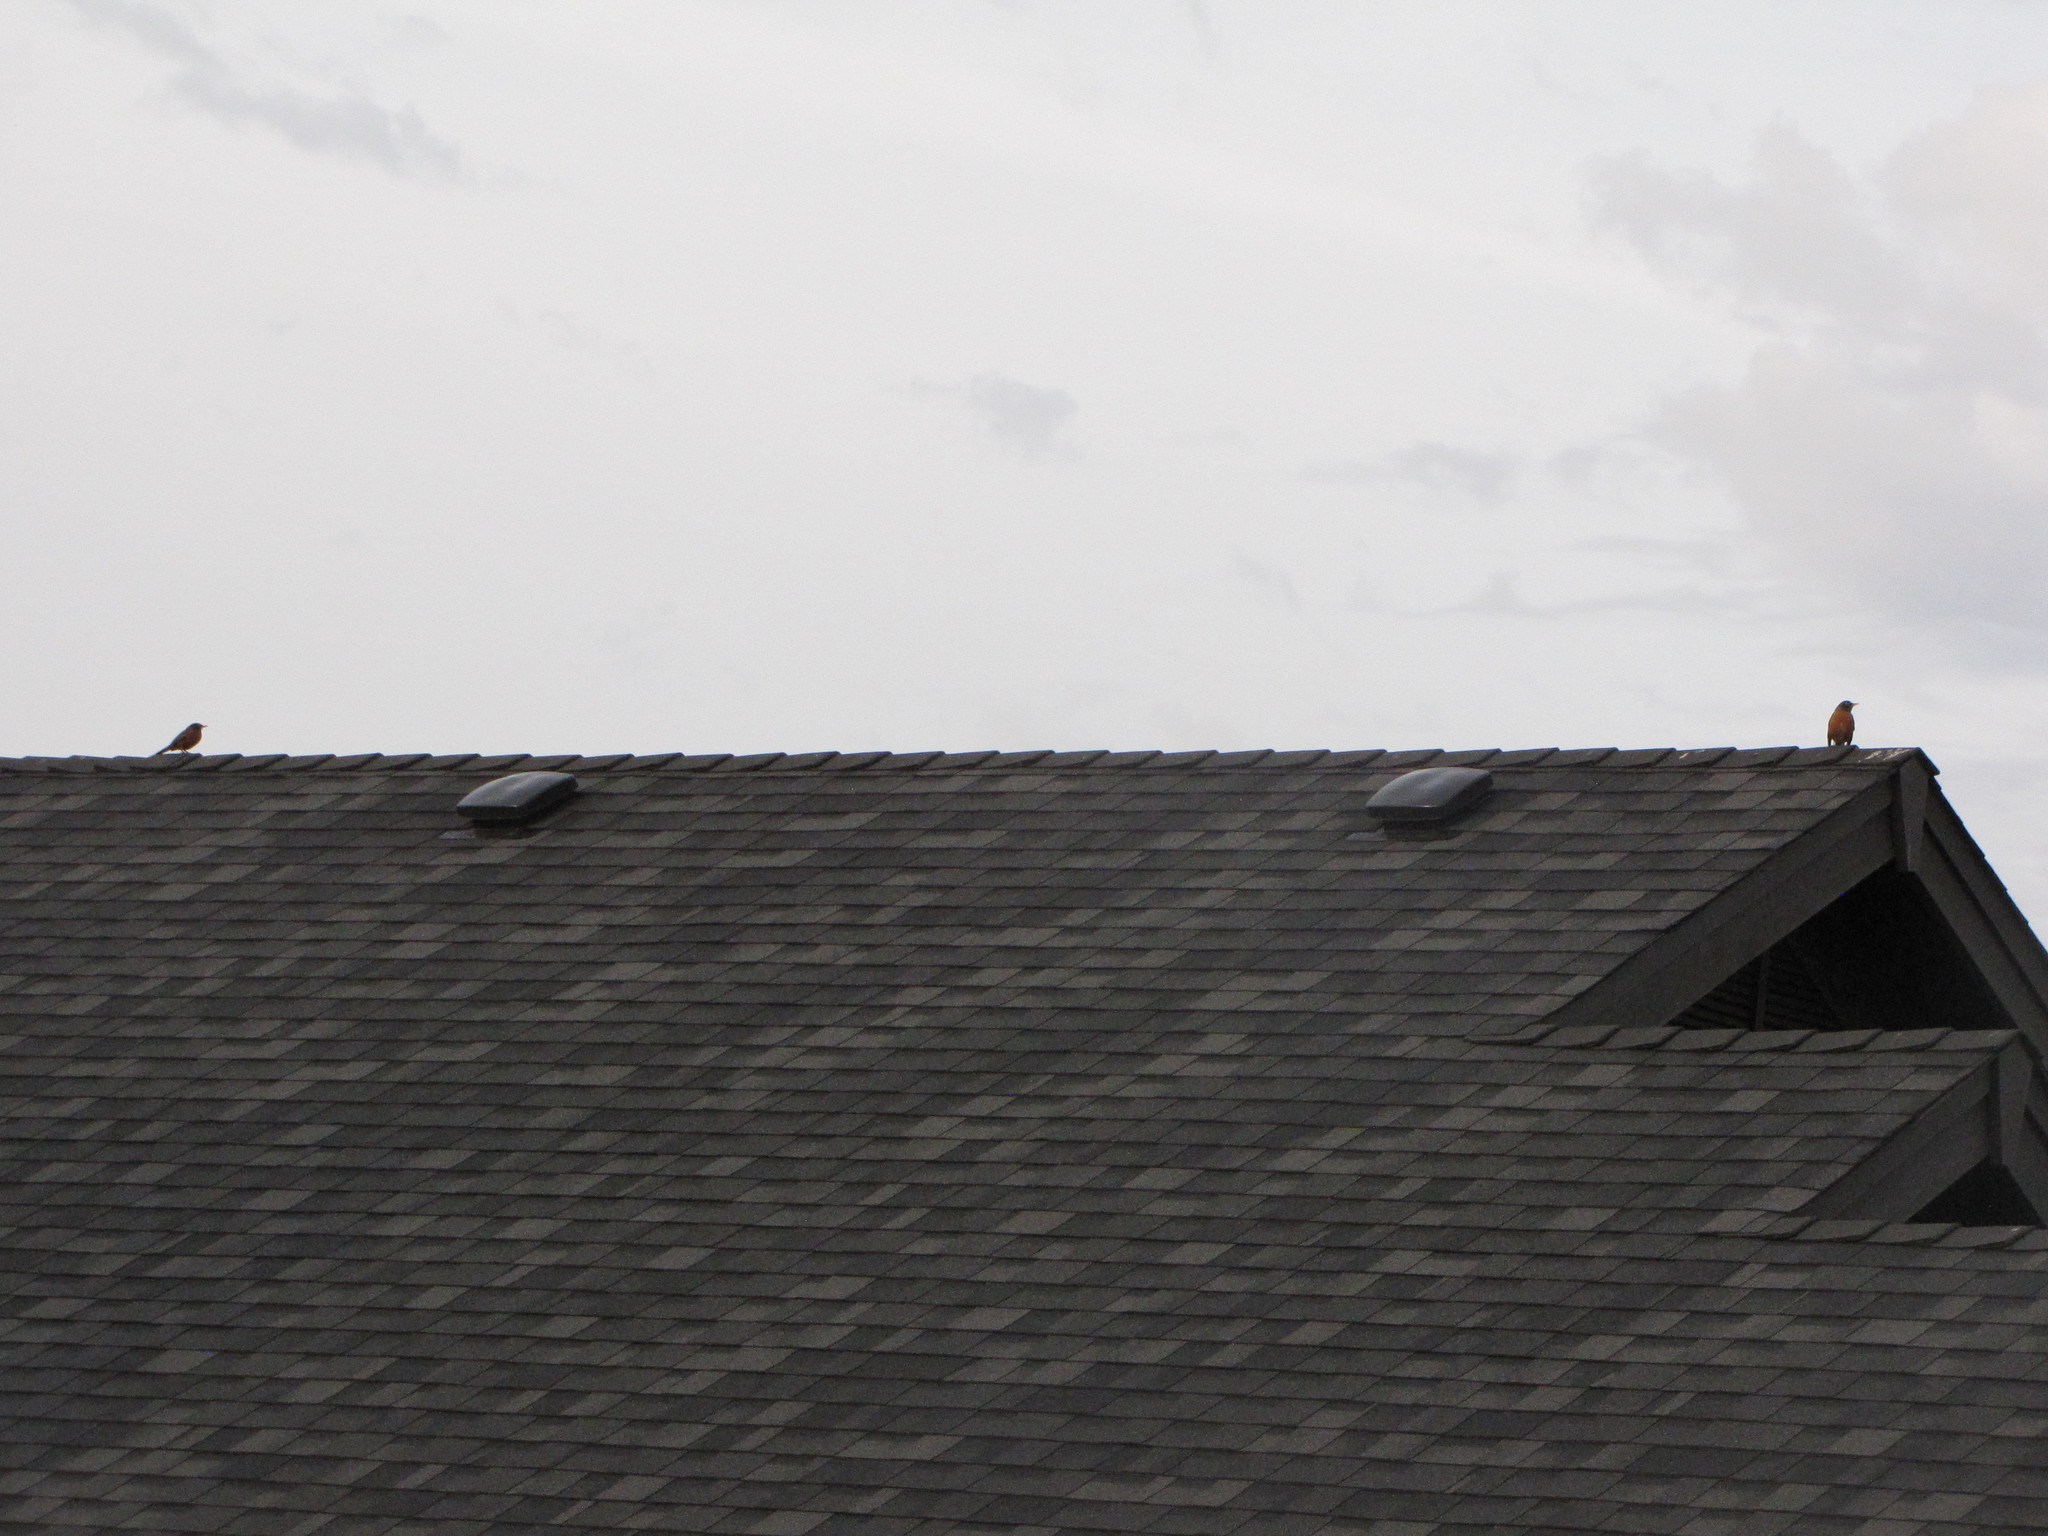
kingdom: Animalia
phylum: Chordata
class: Aves
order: Passeriformes
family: Turdidae
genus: Turdus
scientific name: Turdus migratorius
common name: American robin
